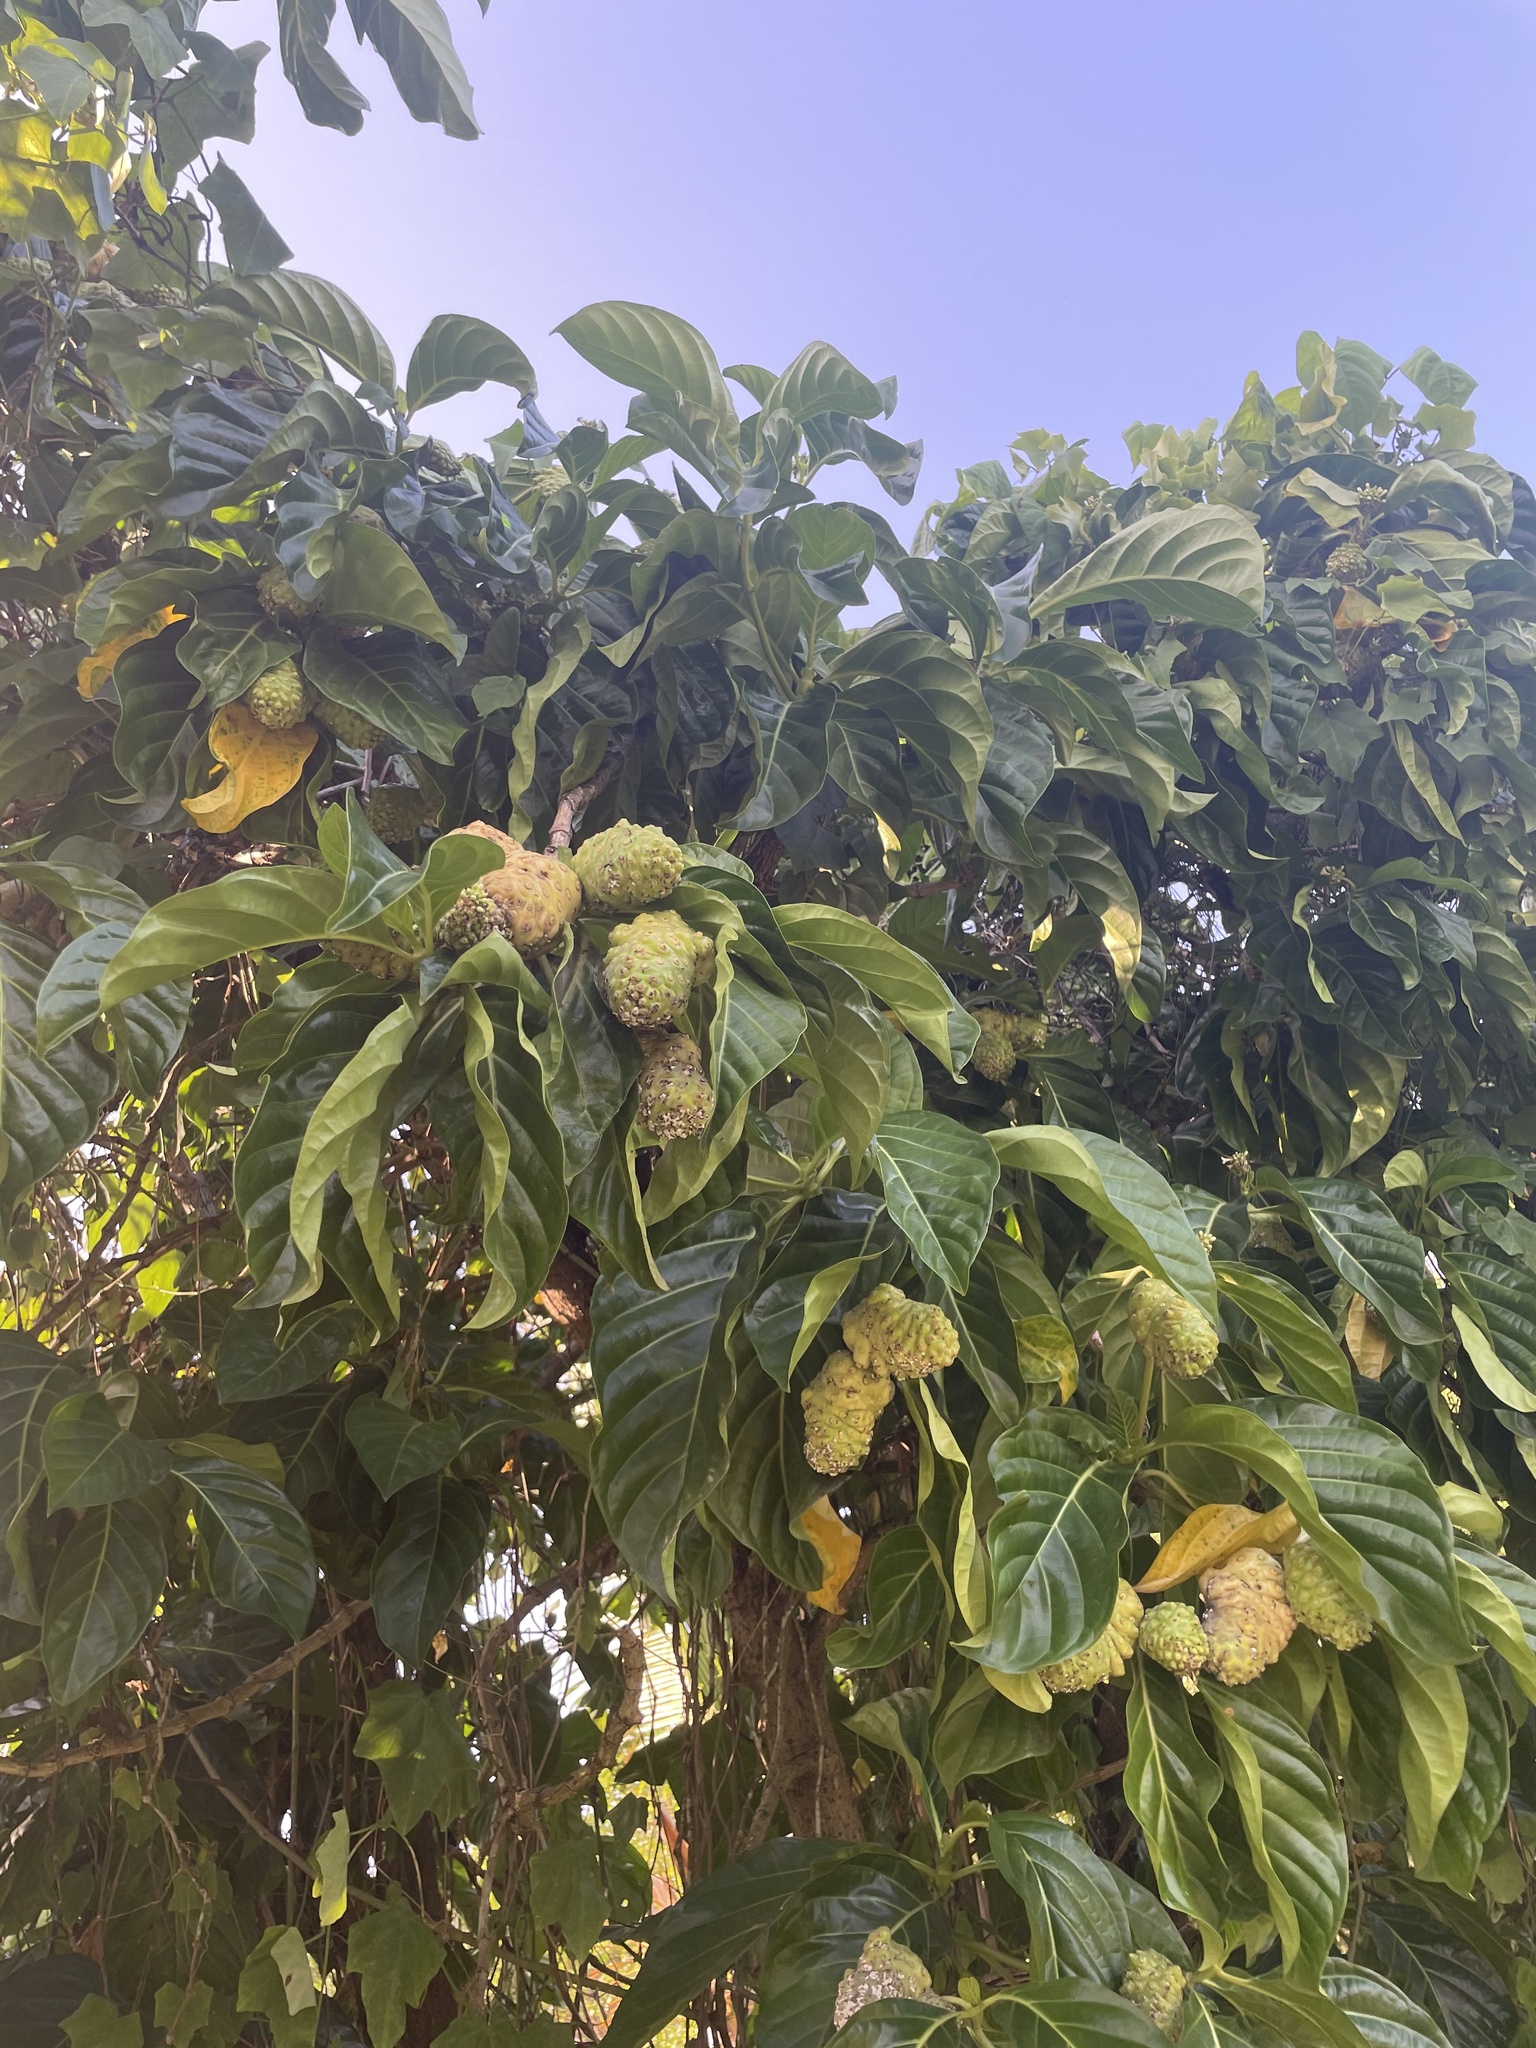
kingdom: Plantae
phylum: Tracheophyta
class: Magnoliopsida
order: Gentianales
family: Rubiaceae
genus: Morinda
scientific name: Morinda citrifolia
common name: Indian-mulberry
